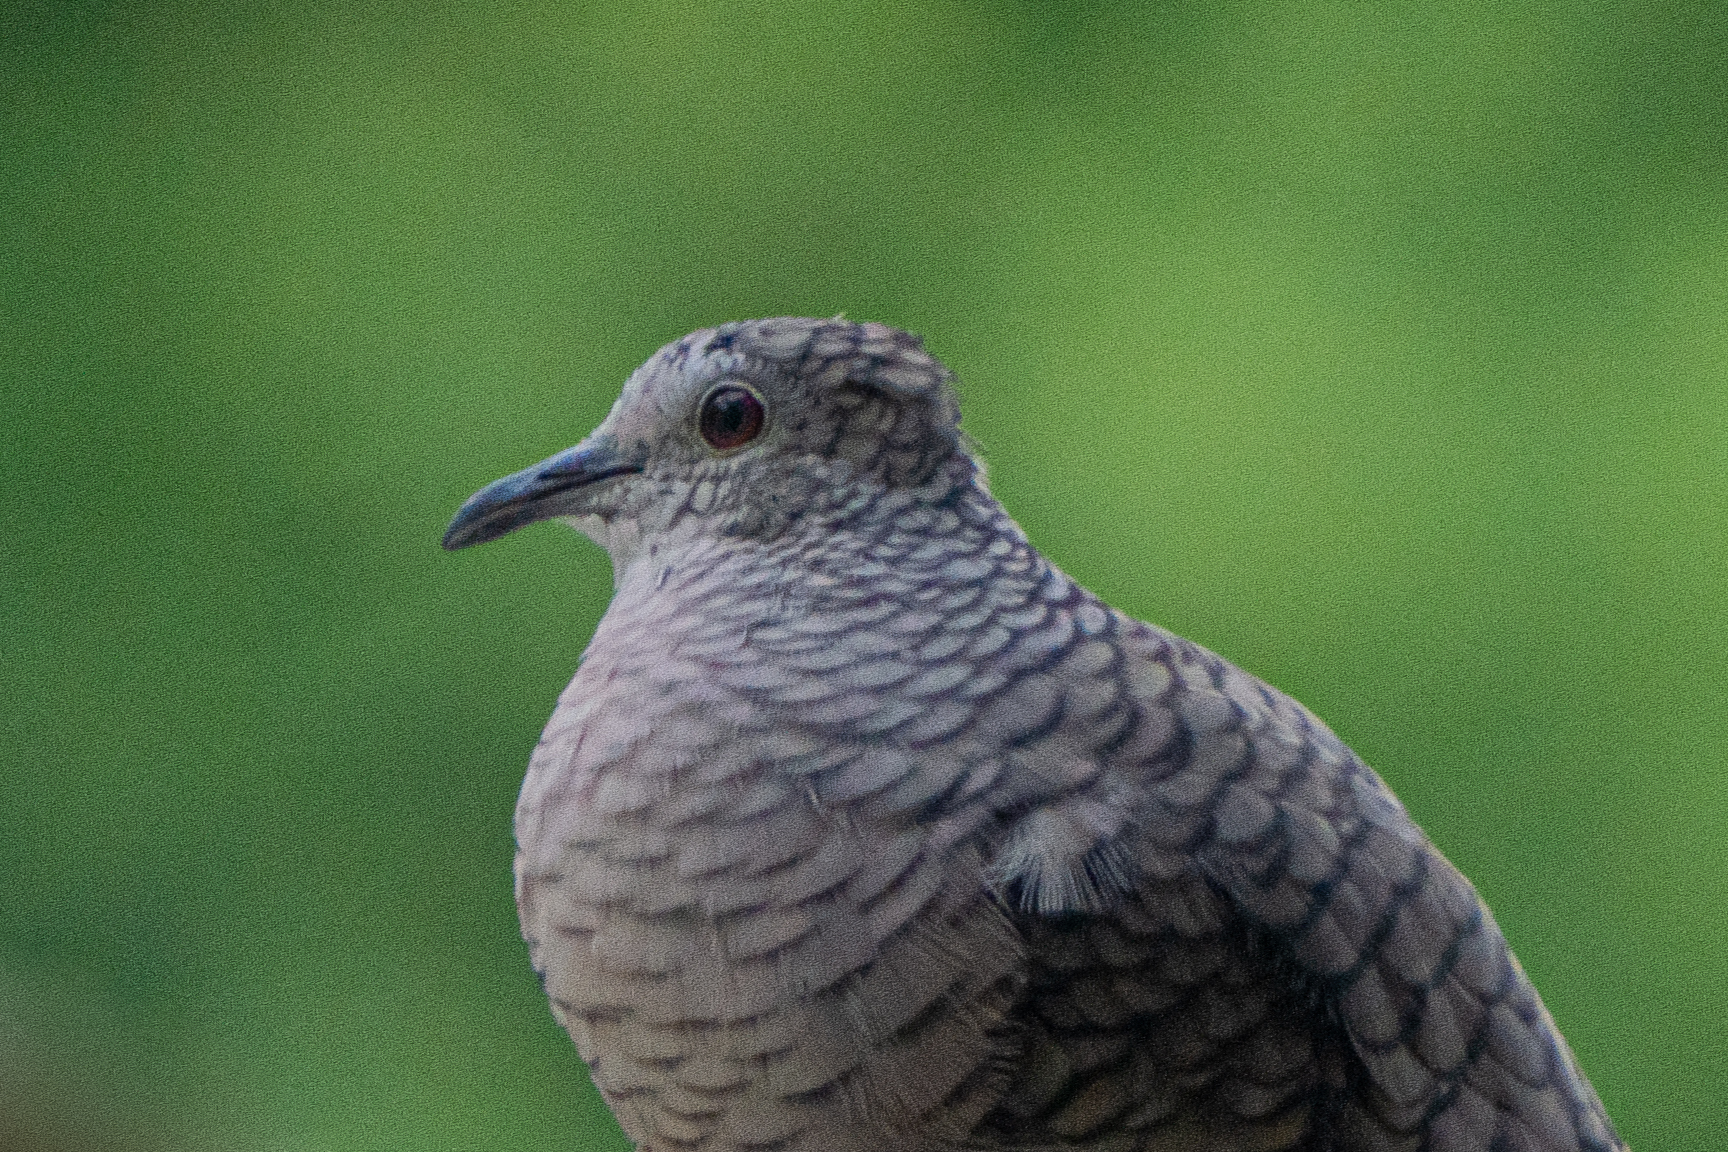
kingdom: Animalia
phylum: Chordata
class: Aves
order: Columbiformes
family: Columbidae
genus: Columbina
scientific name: Columbina inca
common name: Inca dove
